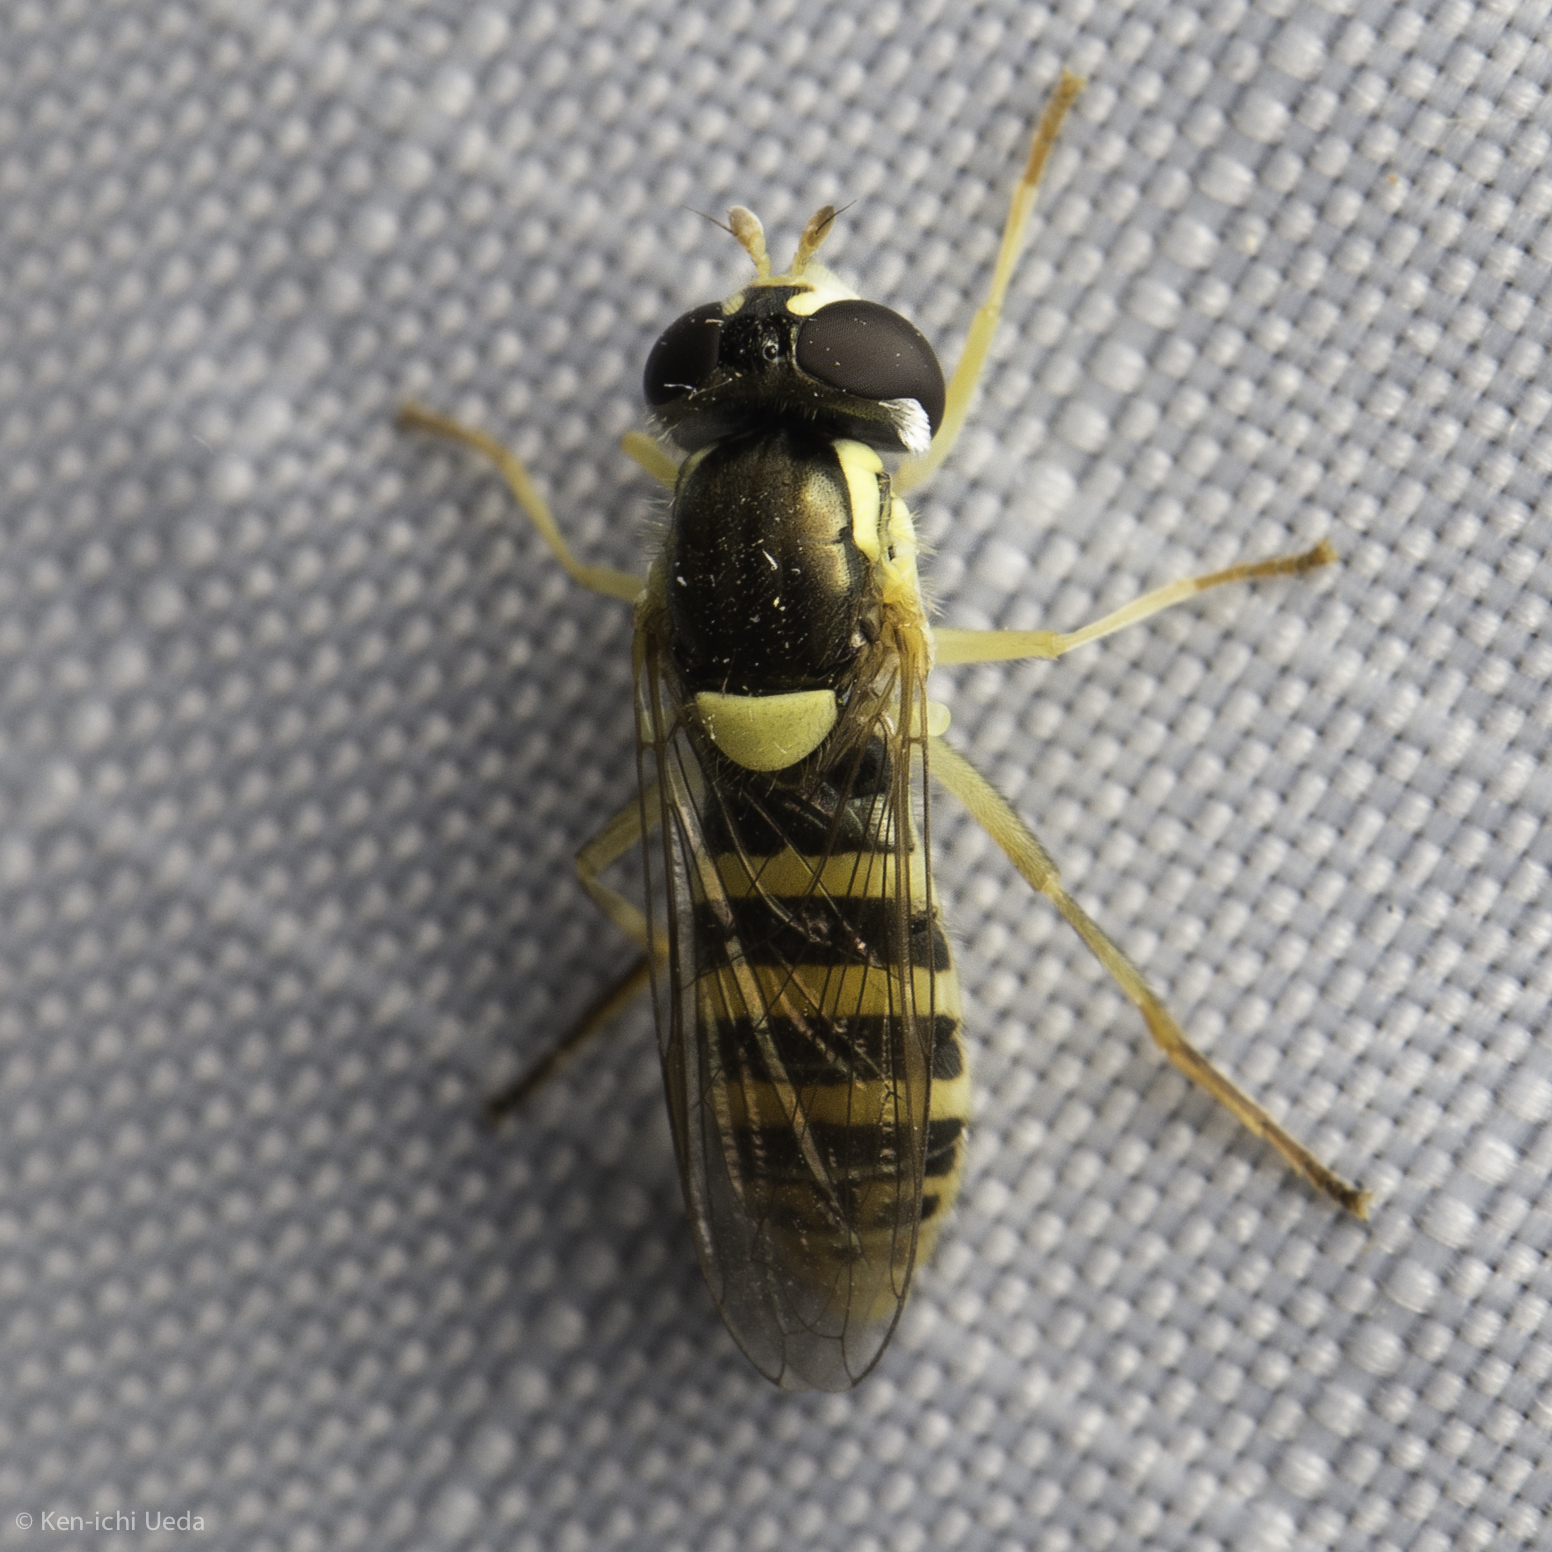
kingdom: Animalia
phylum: Arthropoda
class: Insecta
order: Diptera
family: Syrphidae
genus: Sphaerophoria
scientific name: Sphaerophoria sulphuripes
